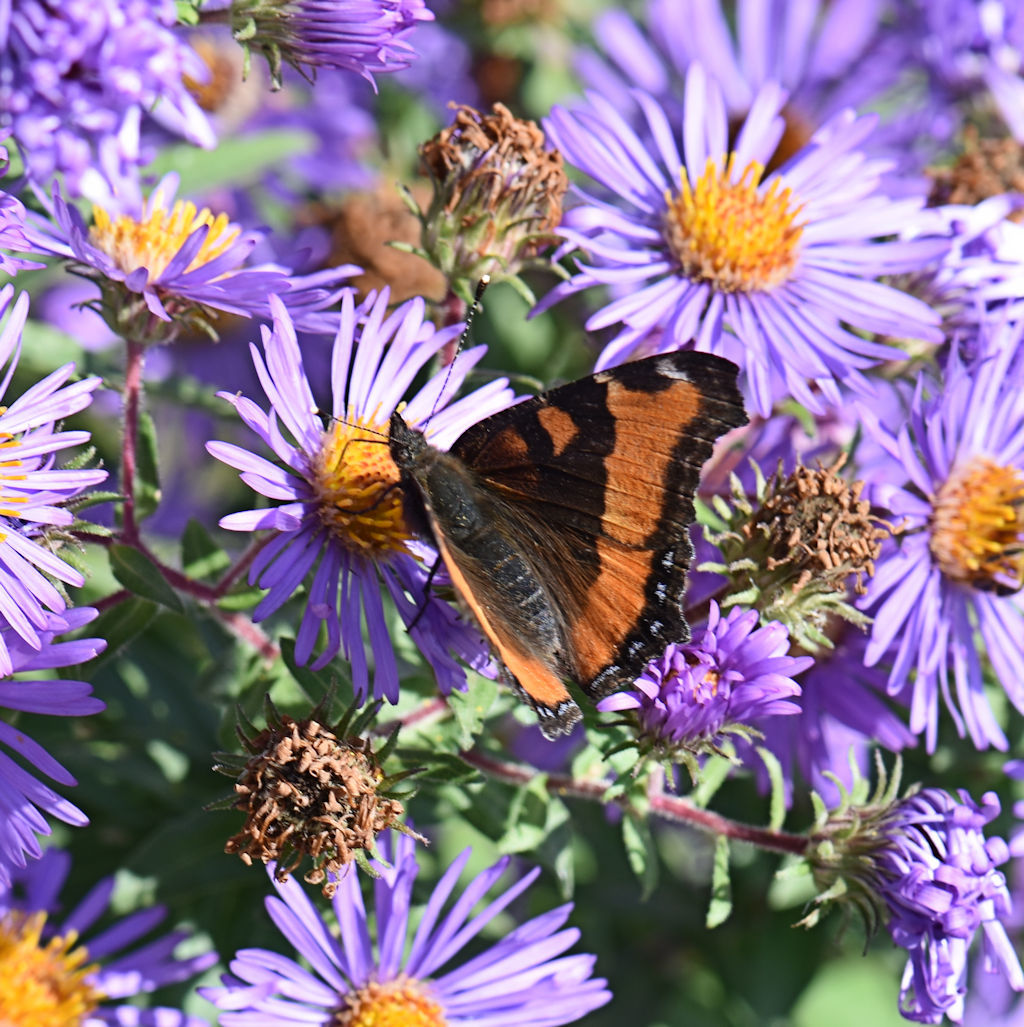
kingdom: Animalia
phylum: Arthropoda
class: Insecta
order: Lepidoptera
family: Nymphalidae
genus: Aglais
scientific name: Aglais milberti
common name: Milbert's tortoiseshell
